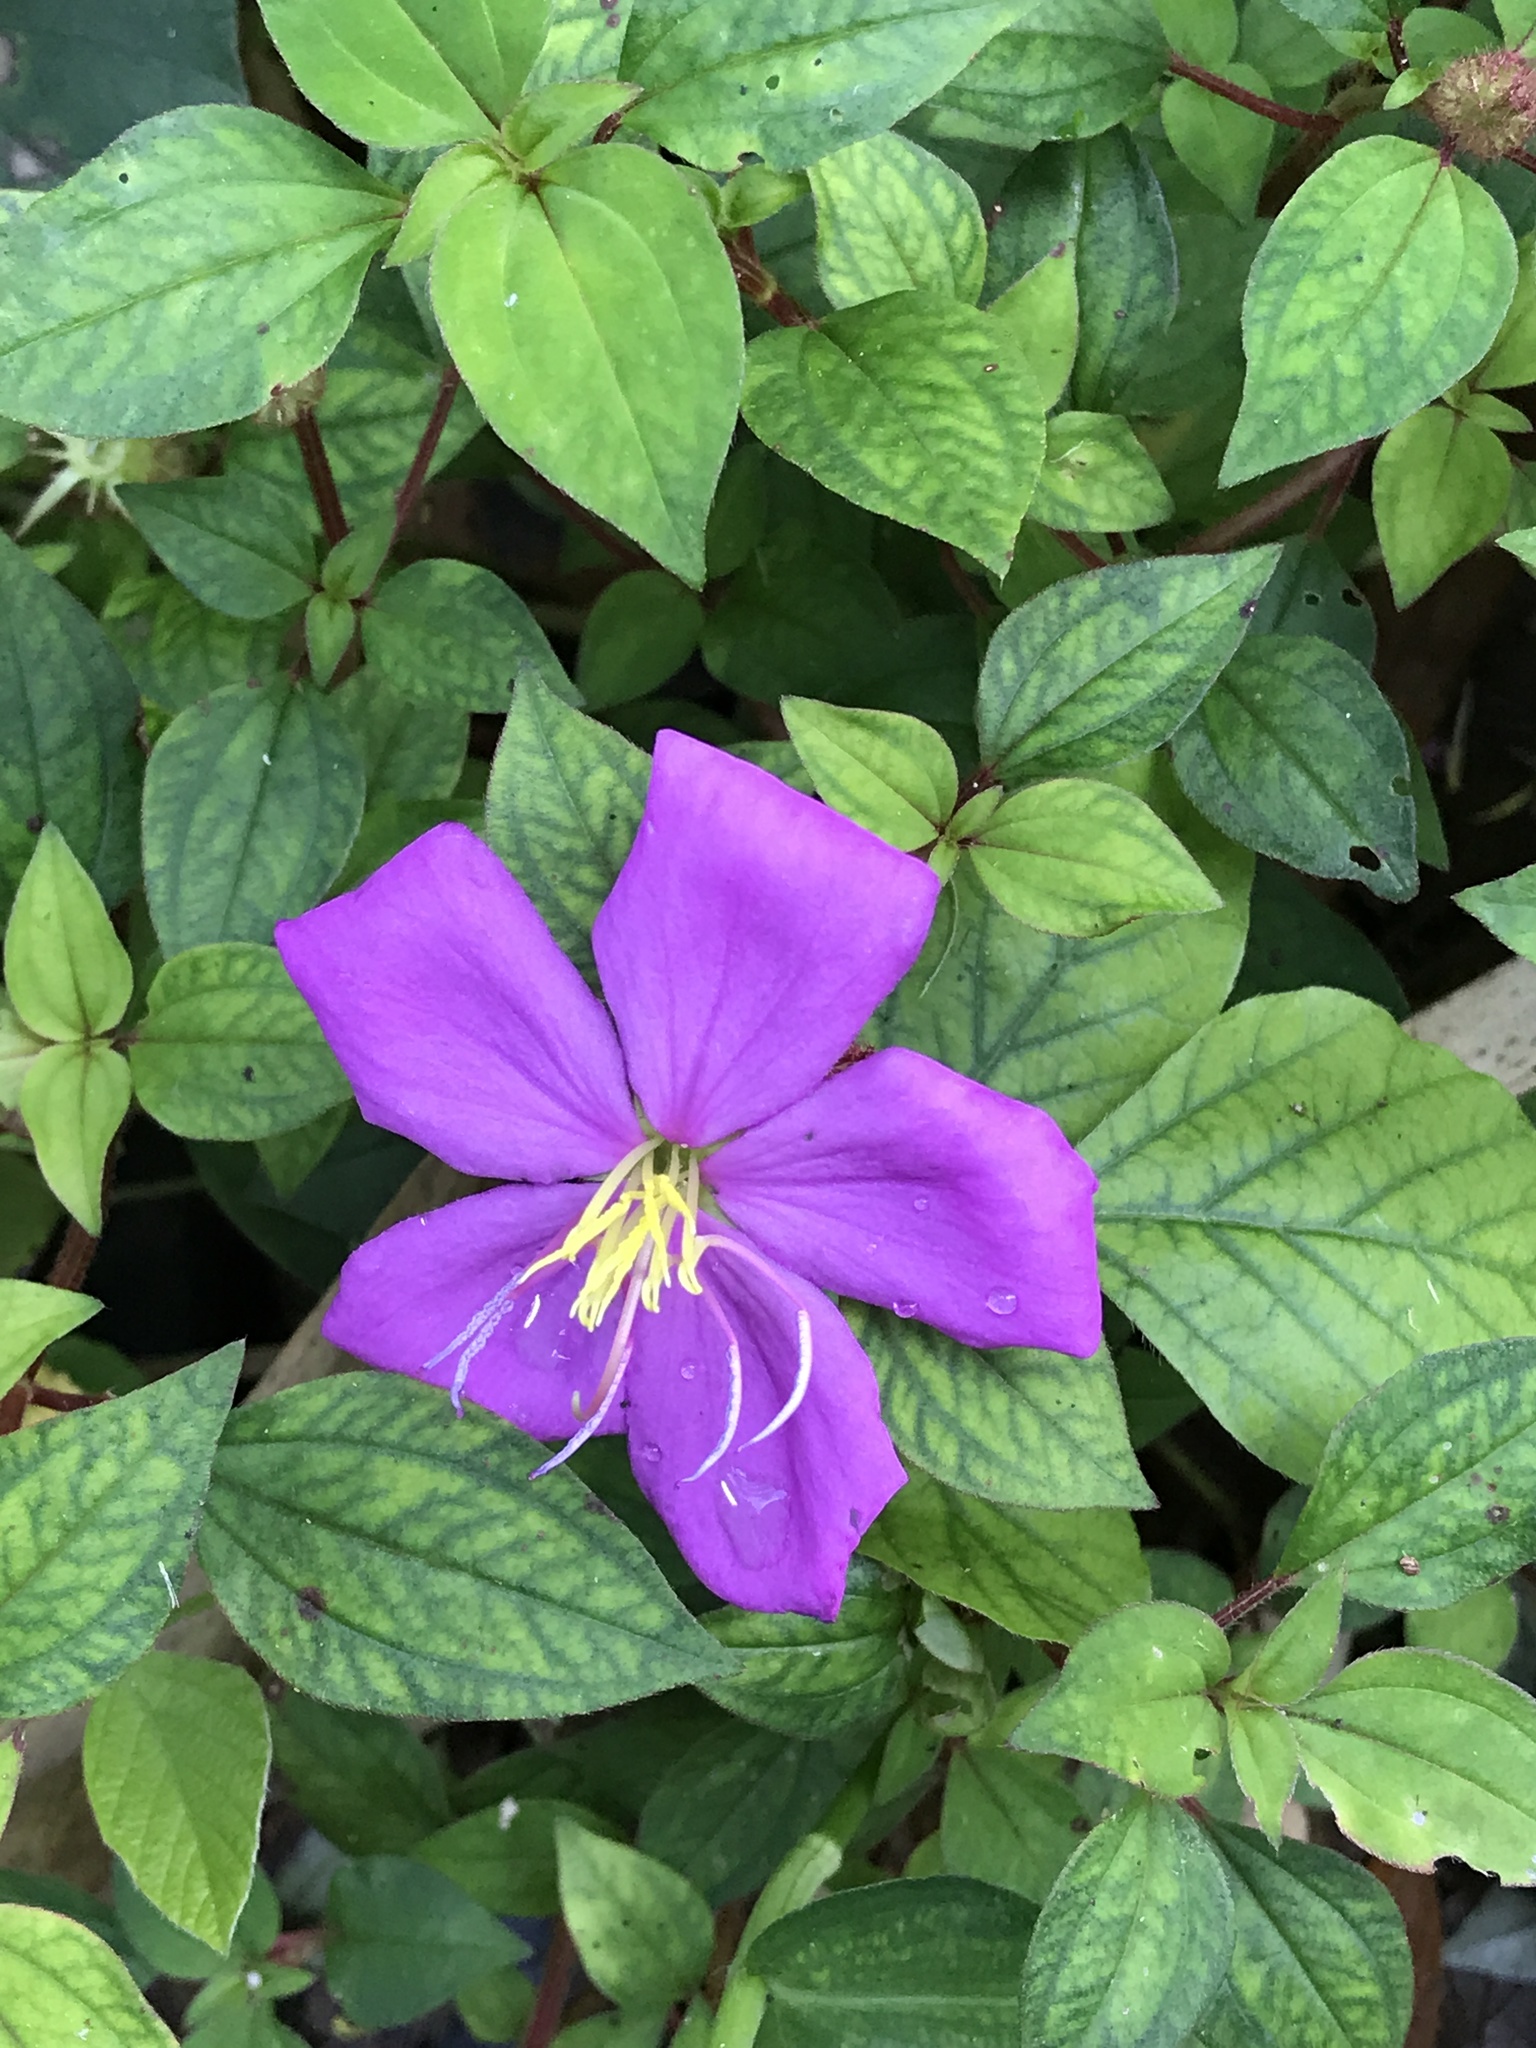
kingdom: Plantae
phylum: Tracheophyta
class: Magnoliopsida
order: Myrtales
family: Melastomataceae
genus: Heterotis
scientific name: Heterotis rotundifolia
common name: Pinklady
